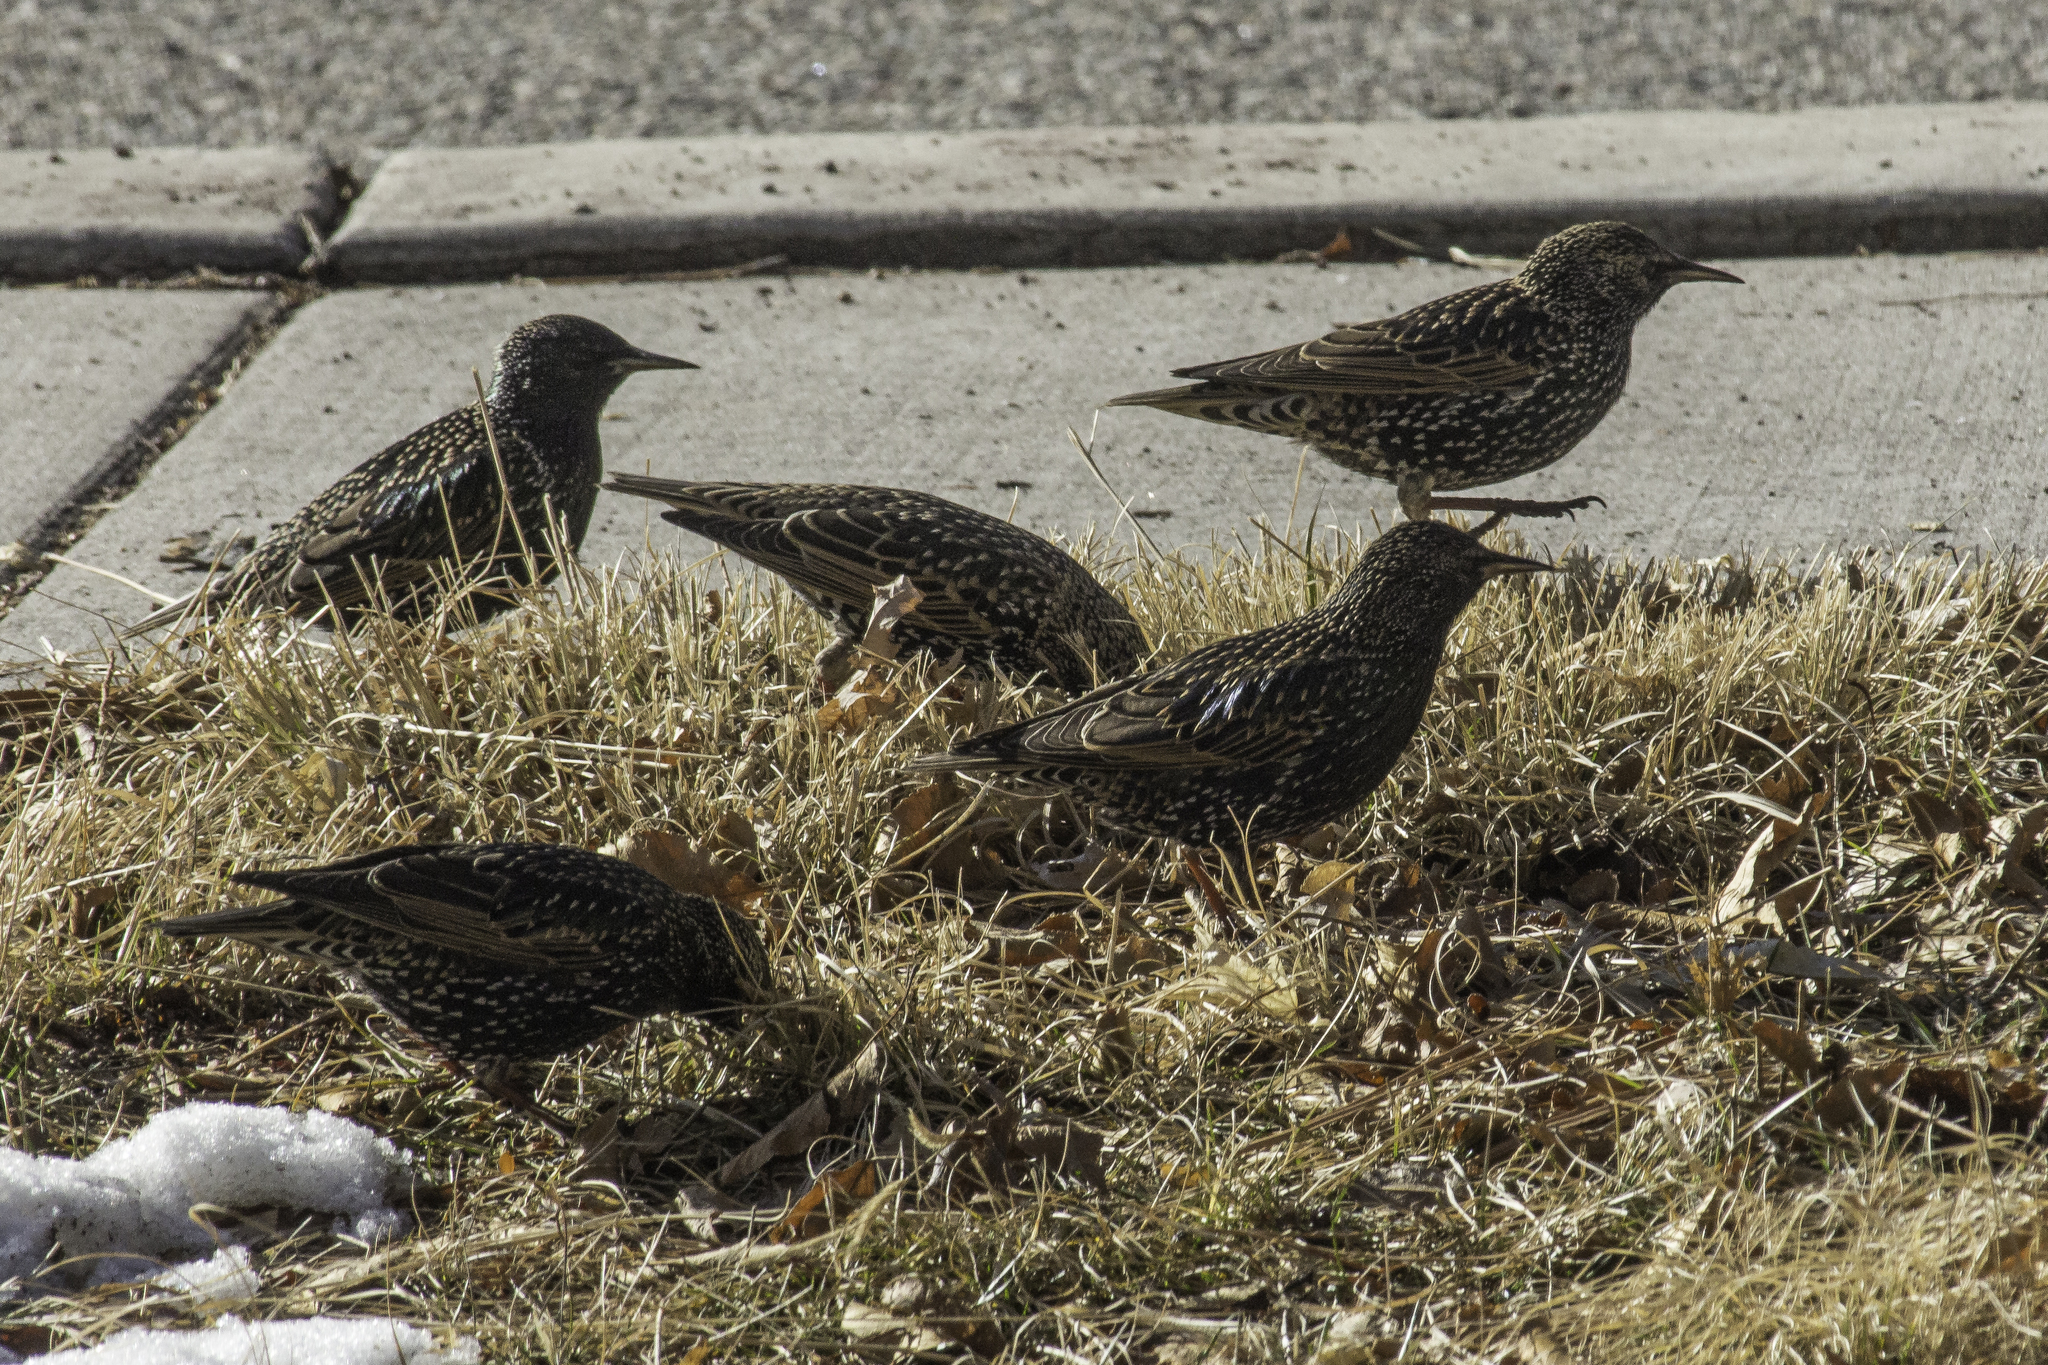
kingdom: Animalia
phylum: Chordata
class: Aves
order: Passeriformes
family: Sturnidae
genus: Sturnus
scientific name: Sturnus vulgaris
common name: Common starling
